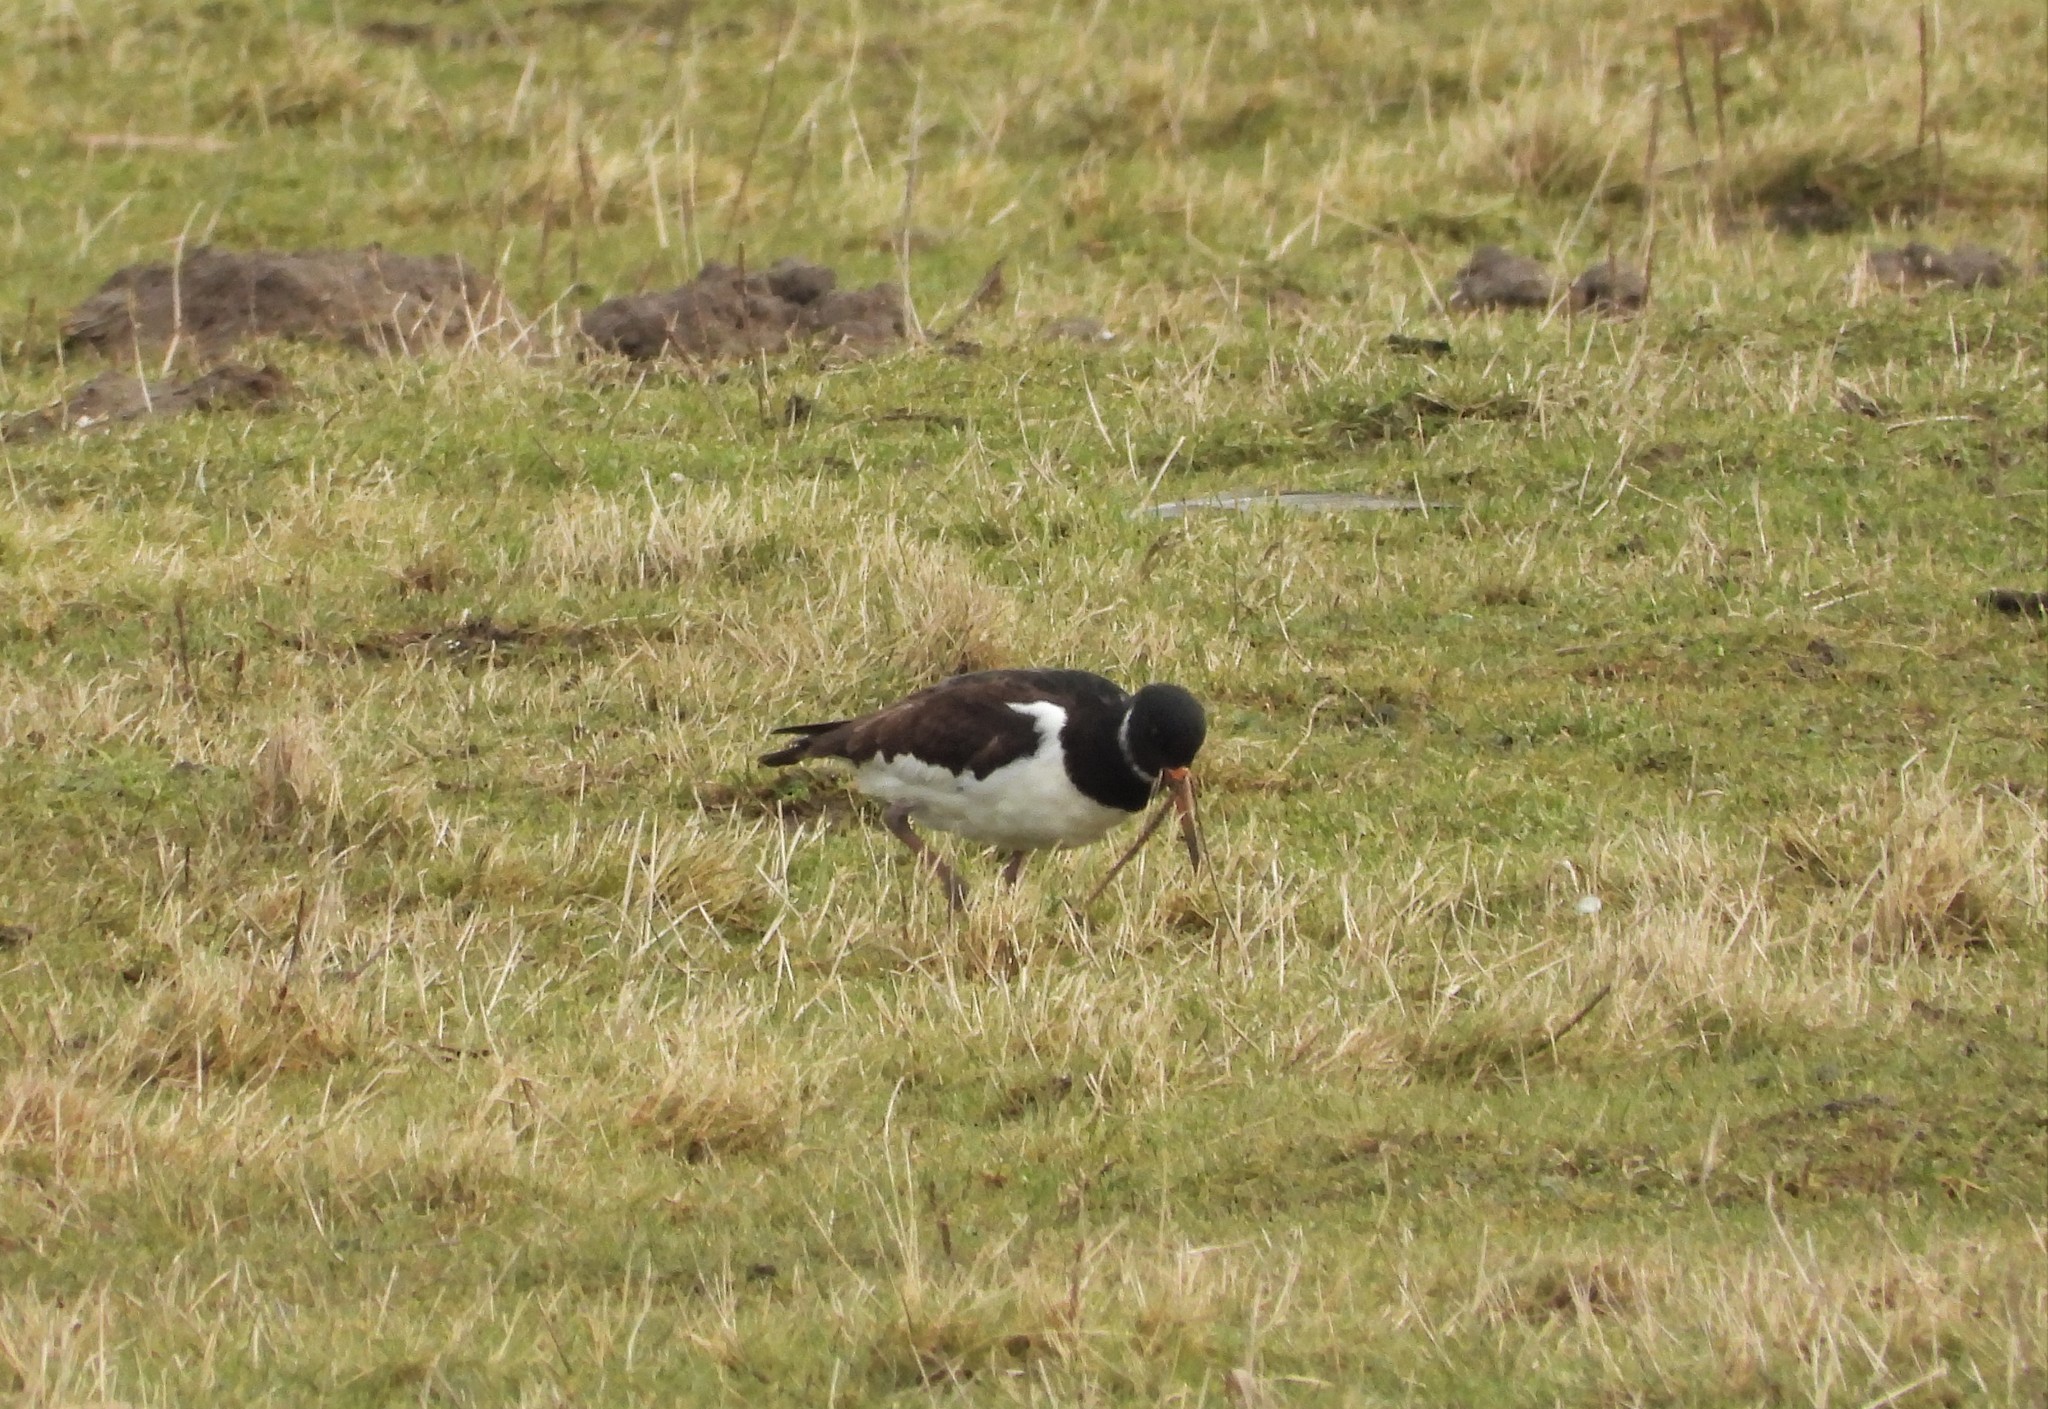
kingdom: Animalia
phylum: Chordata
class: Aves
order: Charadriiformes
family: Haematopodidae
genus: Haematopus
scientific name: Haematopus ostralegus
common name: Eurasian oystercatcher
